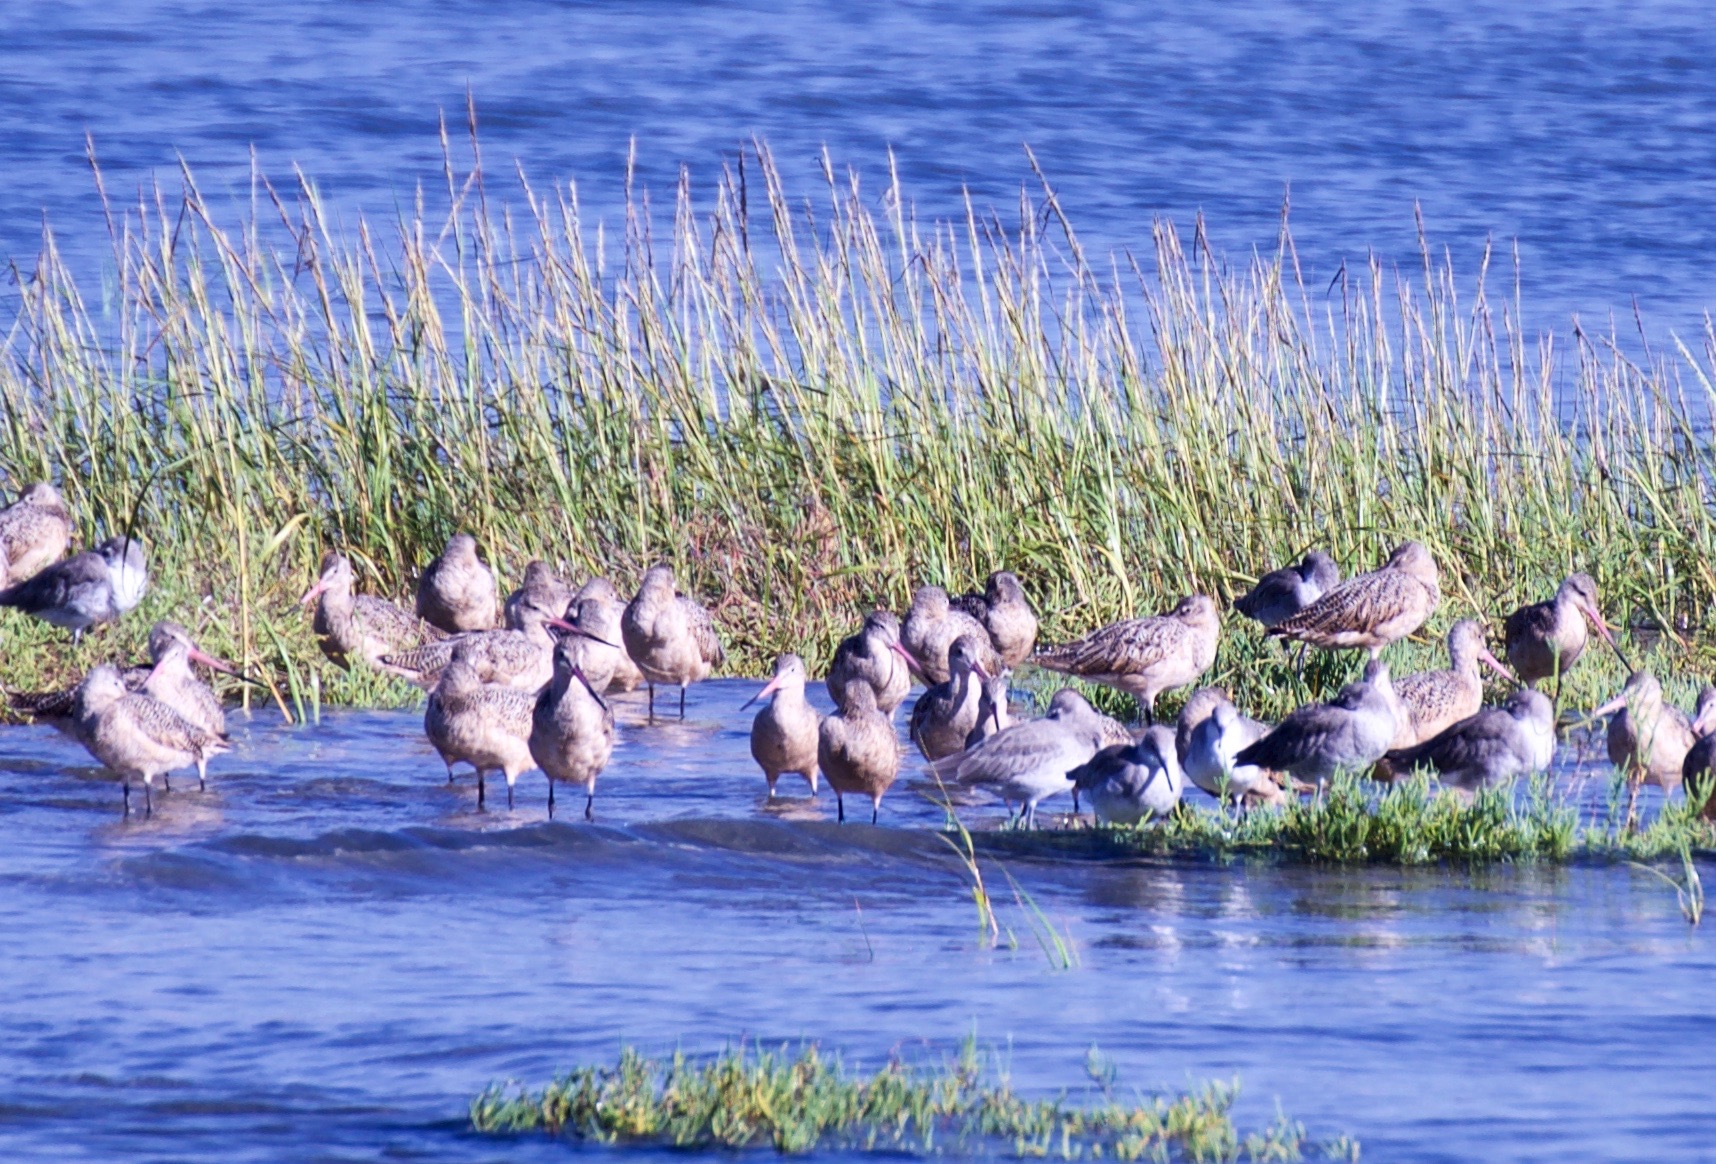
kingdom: Animalia
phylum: Chordata
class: Aves
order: Charadriiformes
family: Scolopacidae
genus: Limosa
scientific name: Limosa fedoa
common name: Marbled godwit
